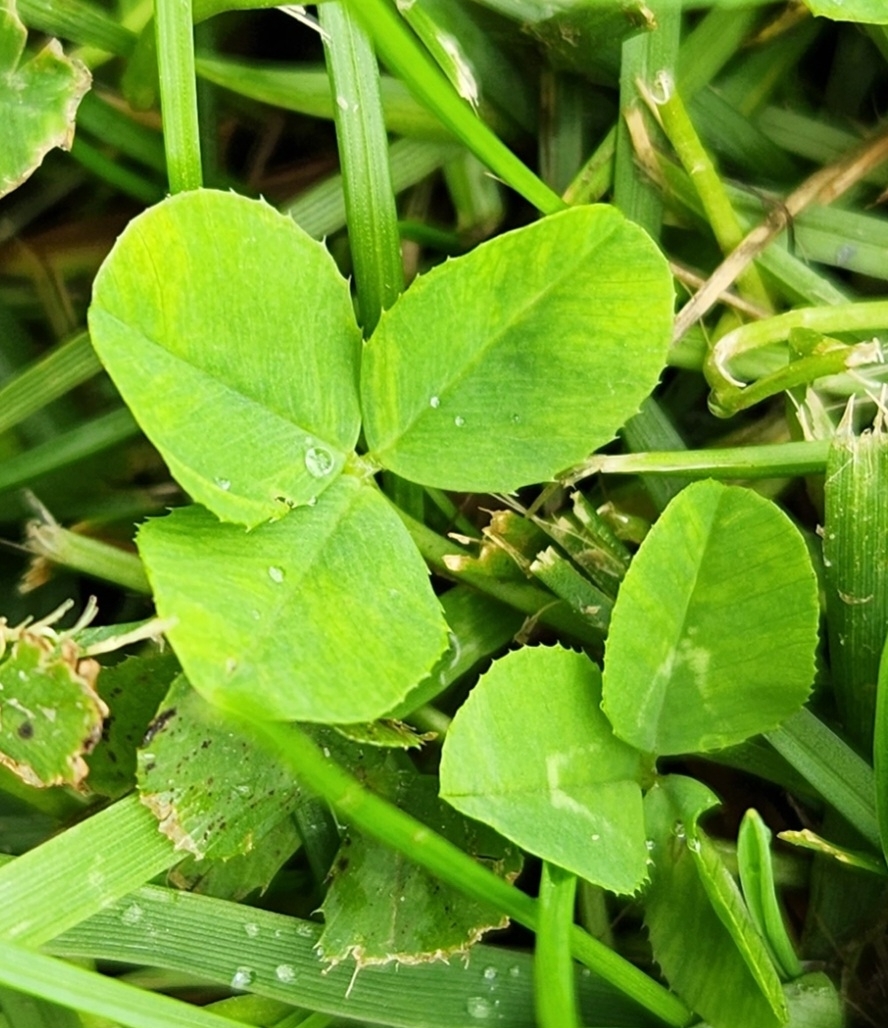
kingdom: Plantae
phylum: Tracheophyta
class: Magnoliopsida
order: Fabales
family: Fabaceae
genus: Trifolium
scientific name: Trifolium repens
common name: White clover
